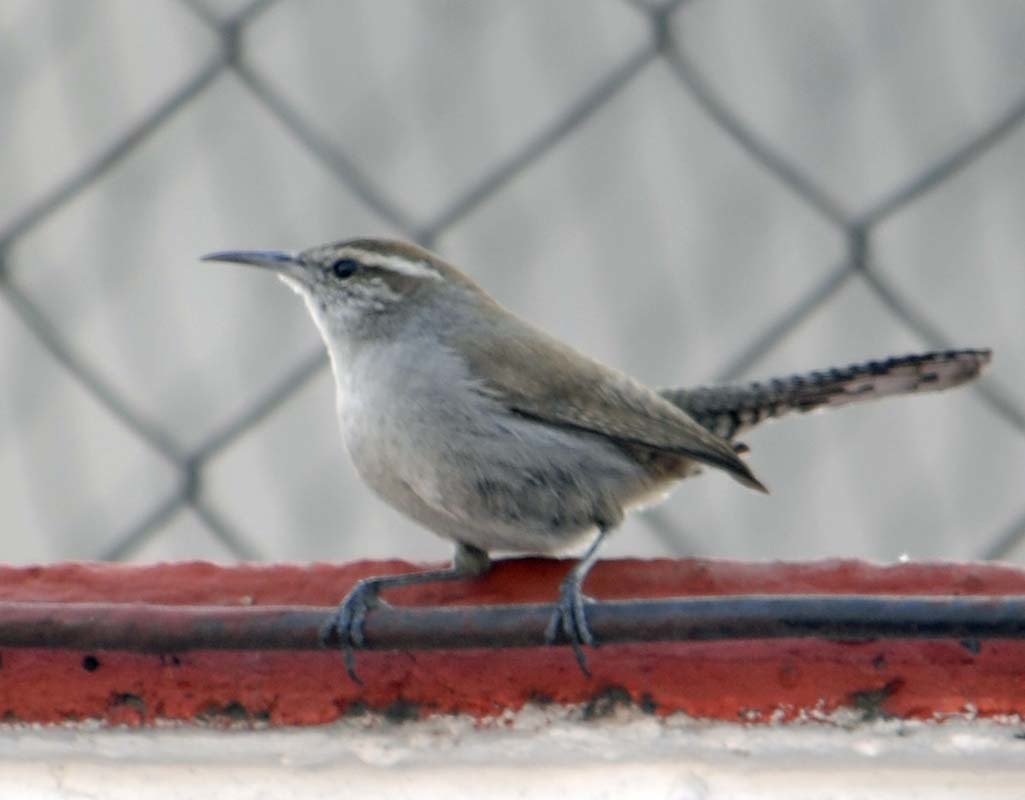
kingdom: Animalia
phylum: Chordata
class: Aves
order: Passeriformes
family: Troglodytidae
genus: Thryomanes
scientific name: Thryomanes bewickii
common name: Bewick's wren
